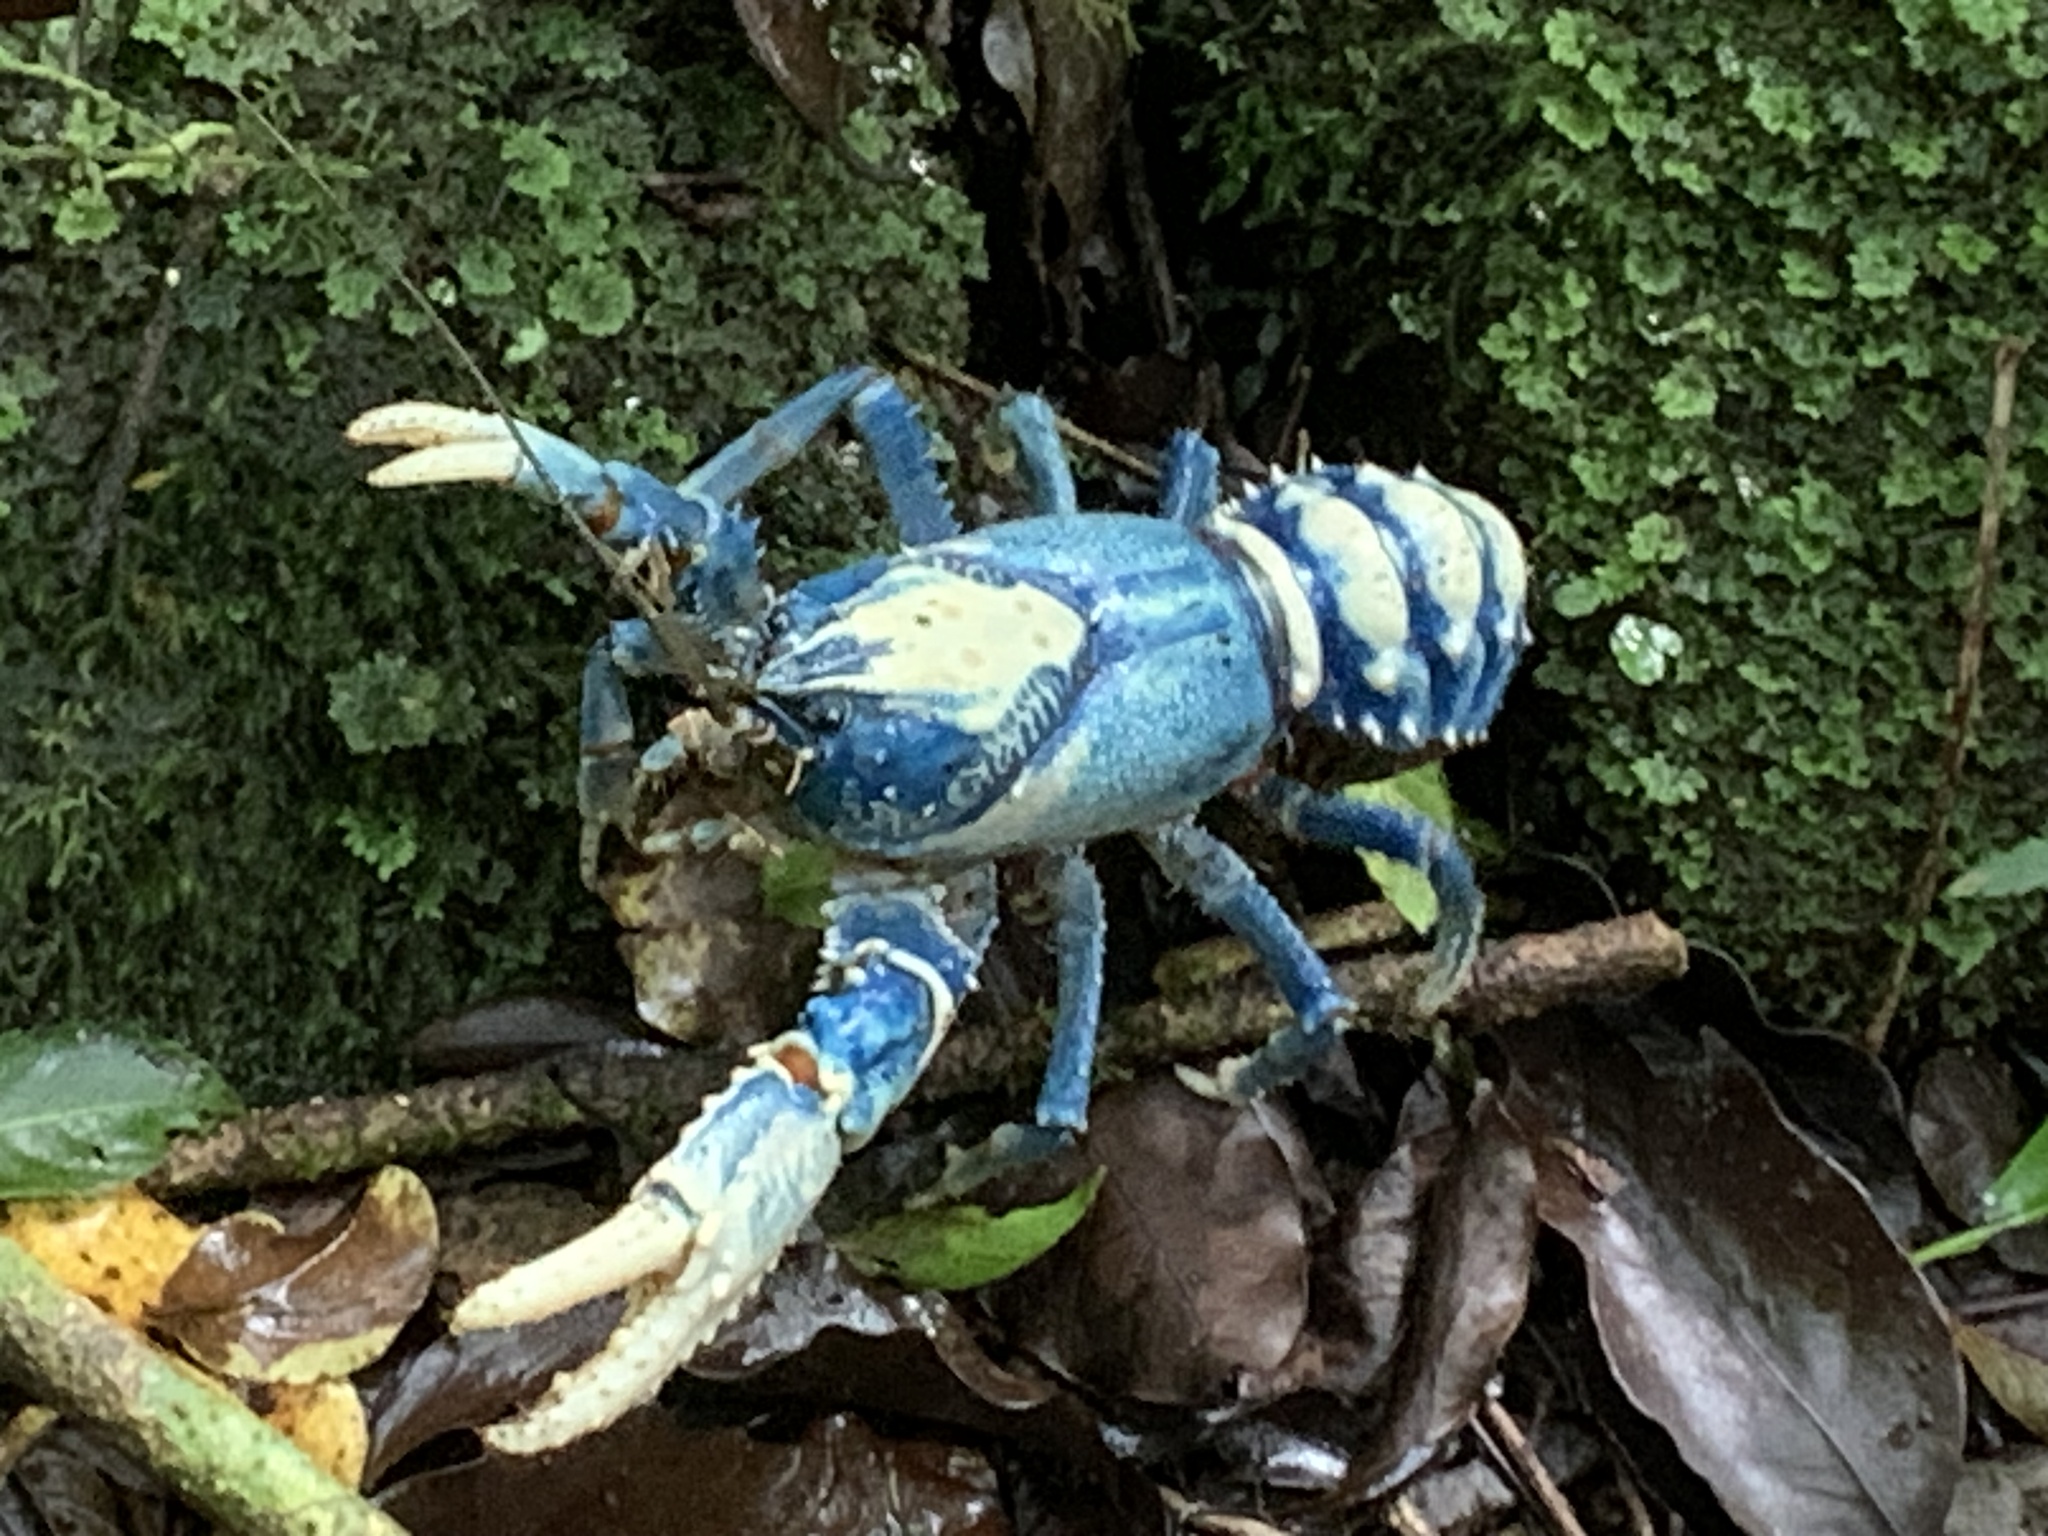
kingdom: Animalia
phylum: Arthropoda
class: Malacostraca
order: Decapoda
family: Parastacidae
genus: Euastacus
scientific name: Euastacus sulcatus
